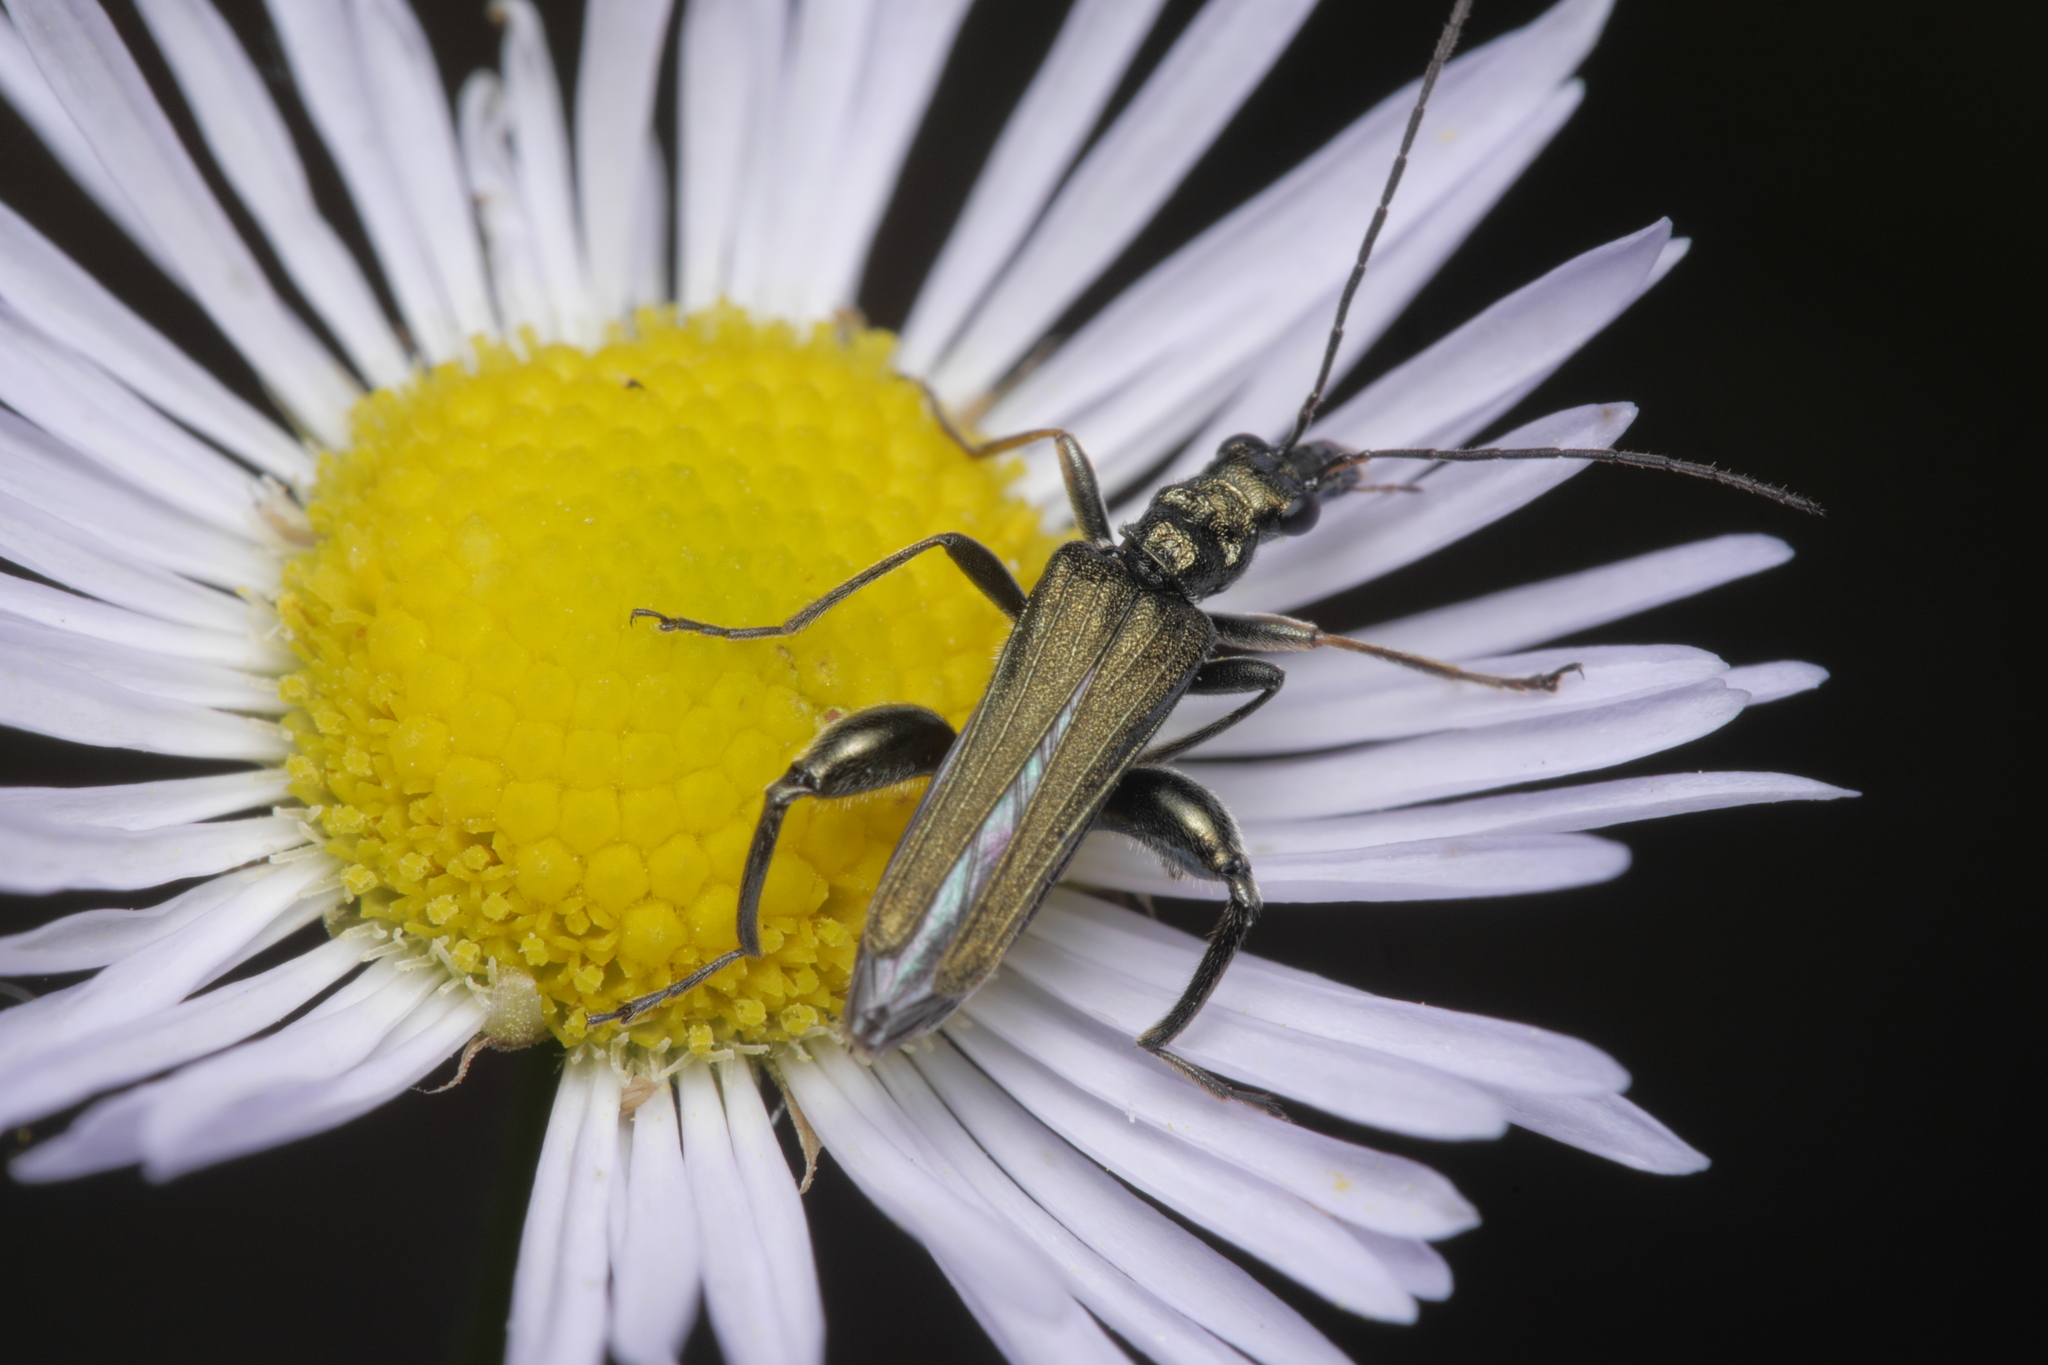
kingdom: Animalia
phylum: Arthropoda
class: Insecta
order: Coleoptera
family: Oedemeridae
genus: Oedemera
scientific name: Oedemera flavipes
